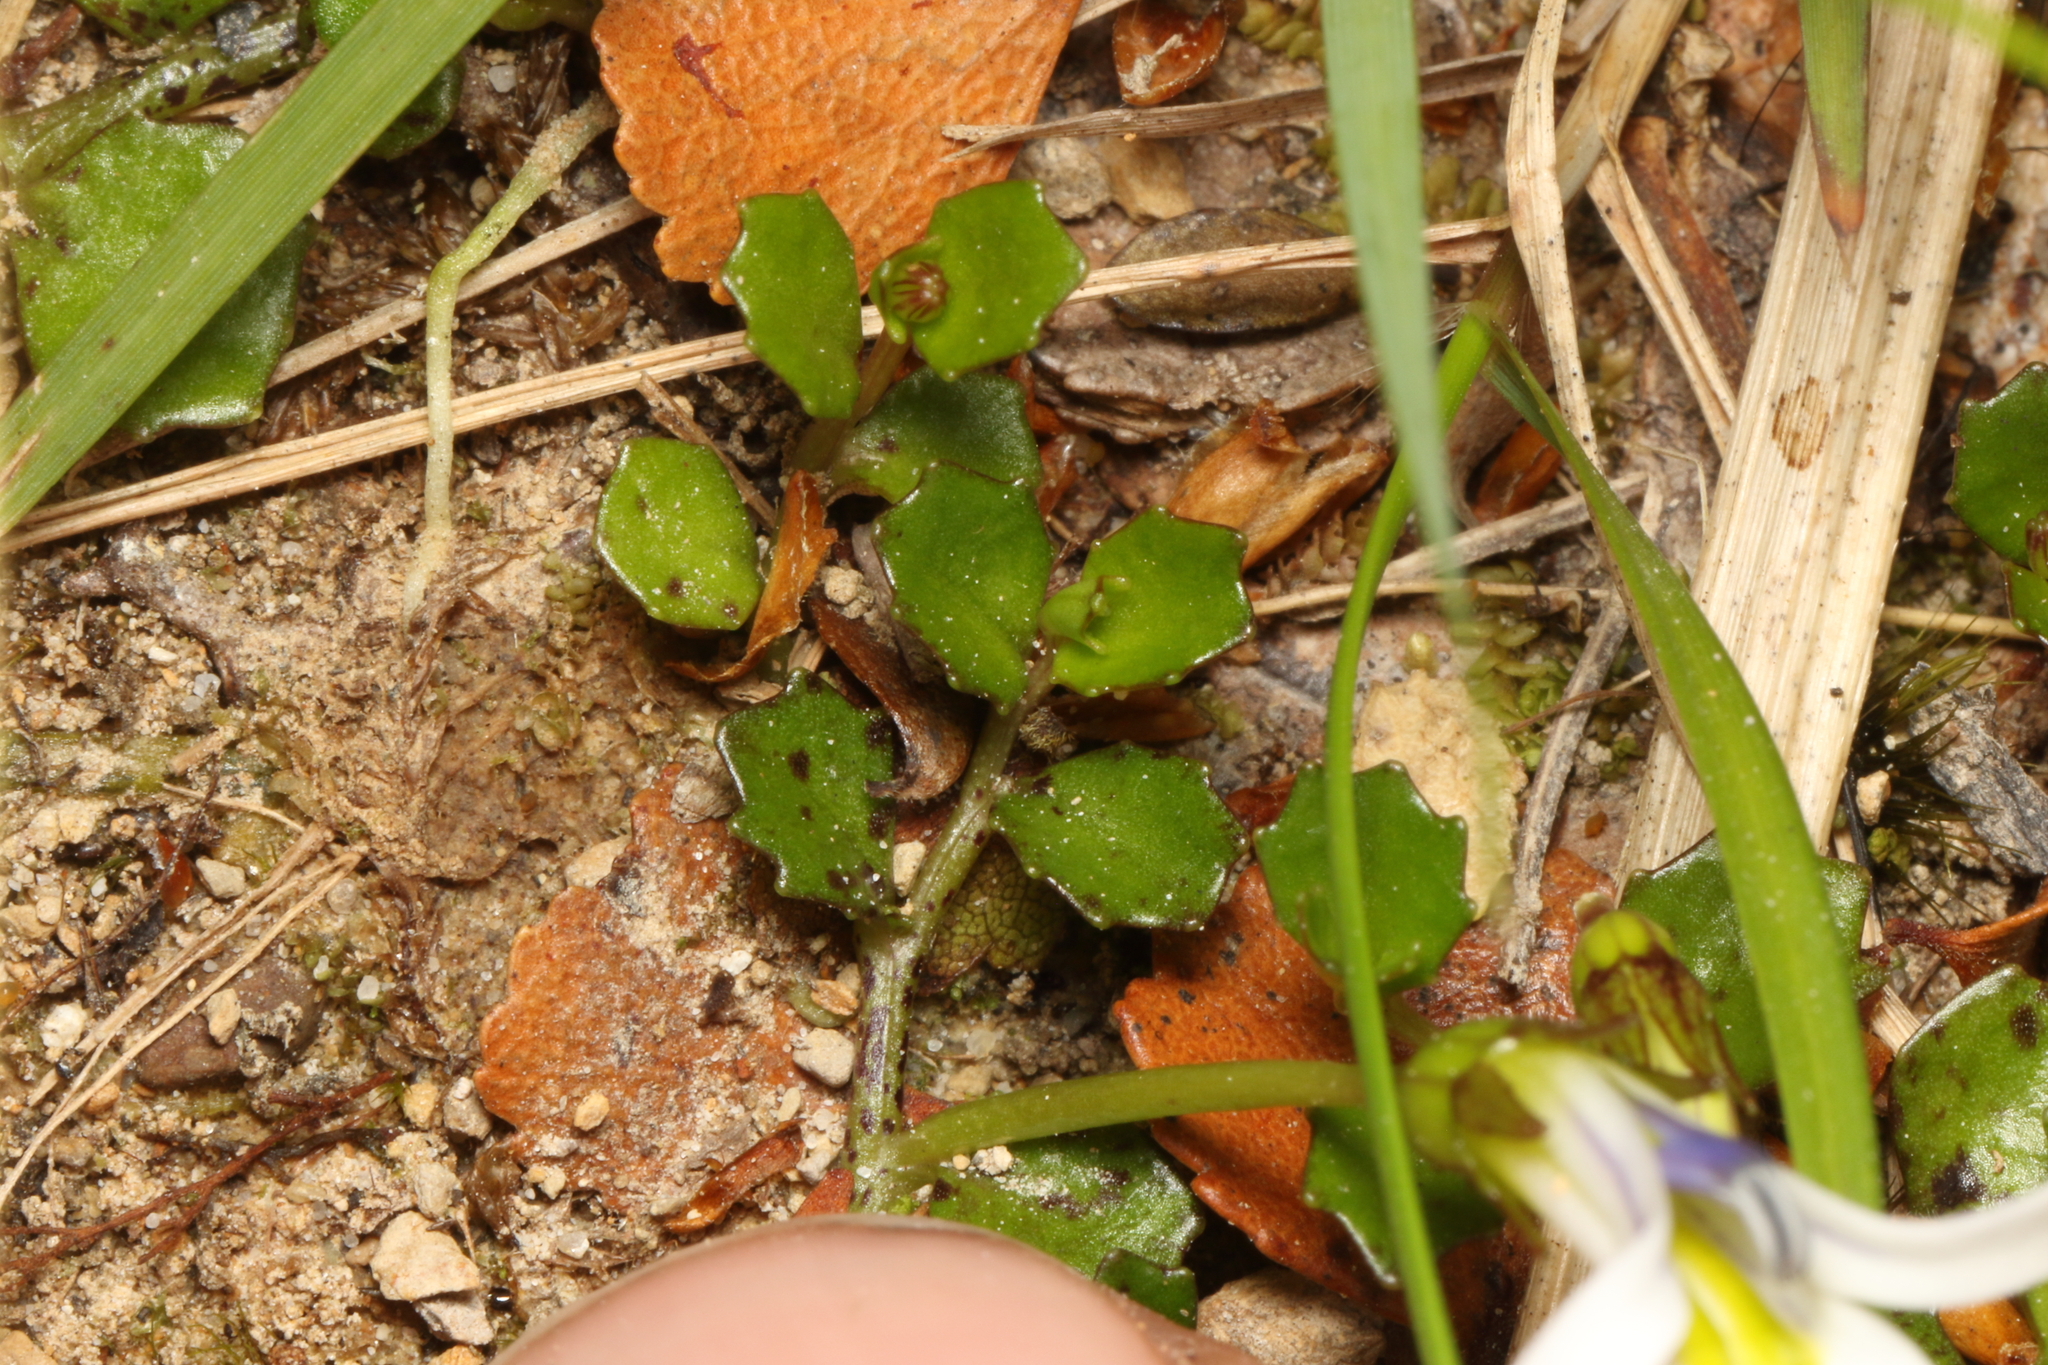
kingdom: Plantae
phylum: Tracheophyta
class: Magnoliopsida
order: Asterales
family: Campanulaceae
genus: Lobelia
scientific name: Lobelia angulata
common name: Lawn lobelia
